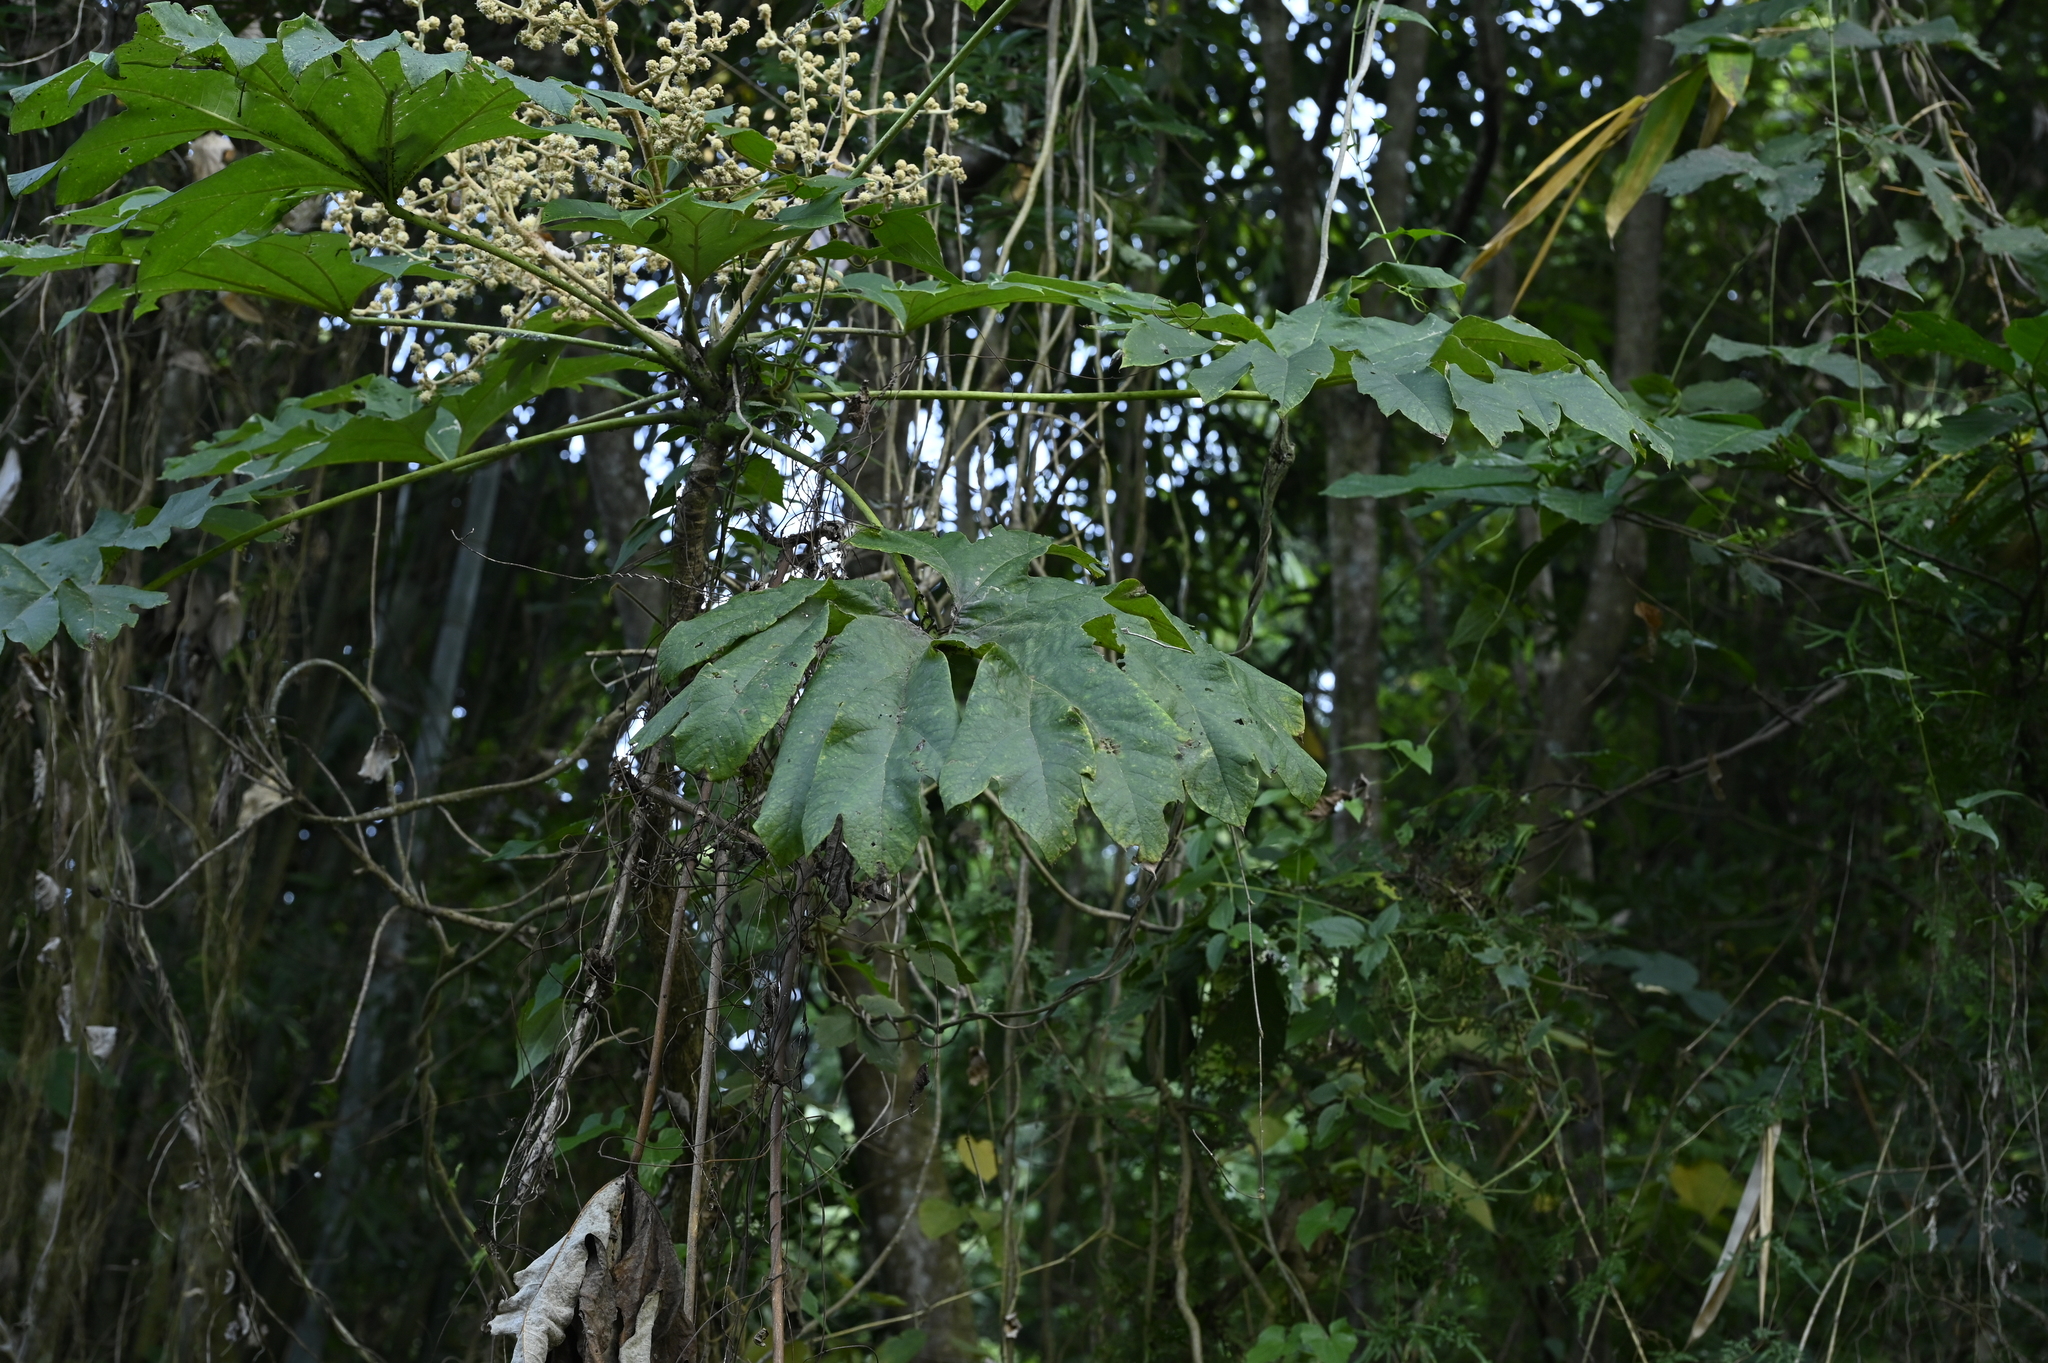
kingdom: Plantae
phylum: Tracheophyta
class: Magnoliopsida
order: Apiales
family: Araliaceae
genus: Tetrapanax
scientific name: Tetrapanax papyrifer
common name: Rice-paper plant
